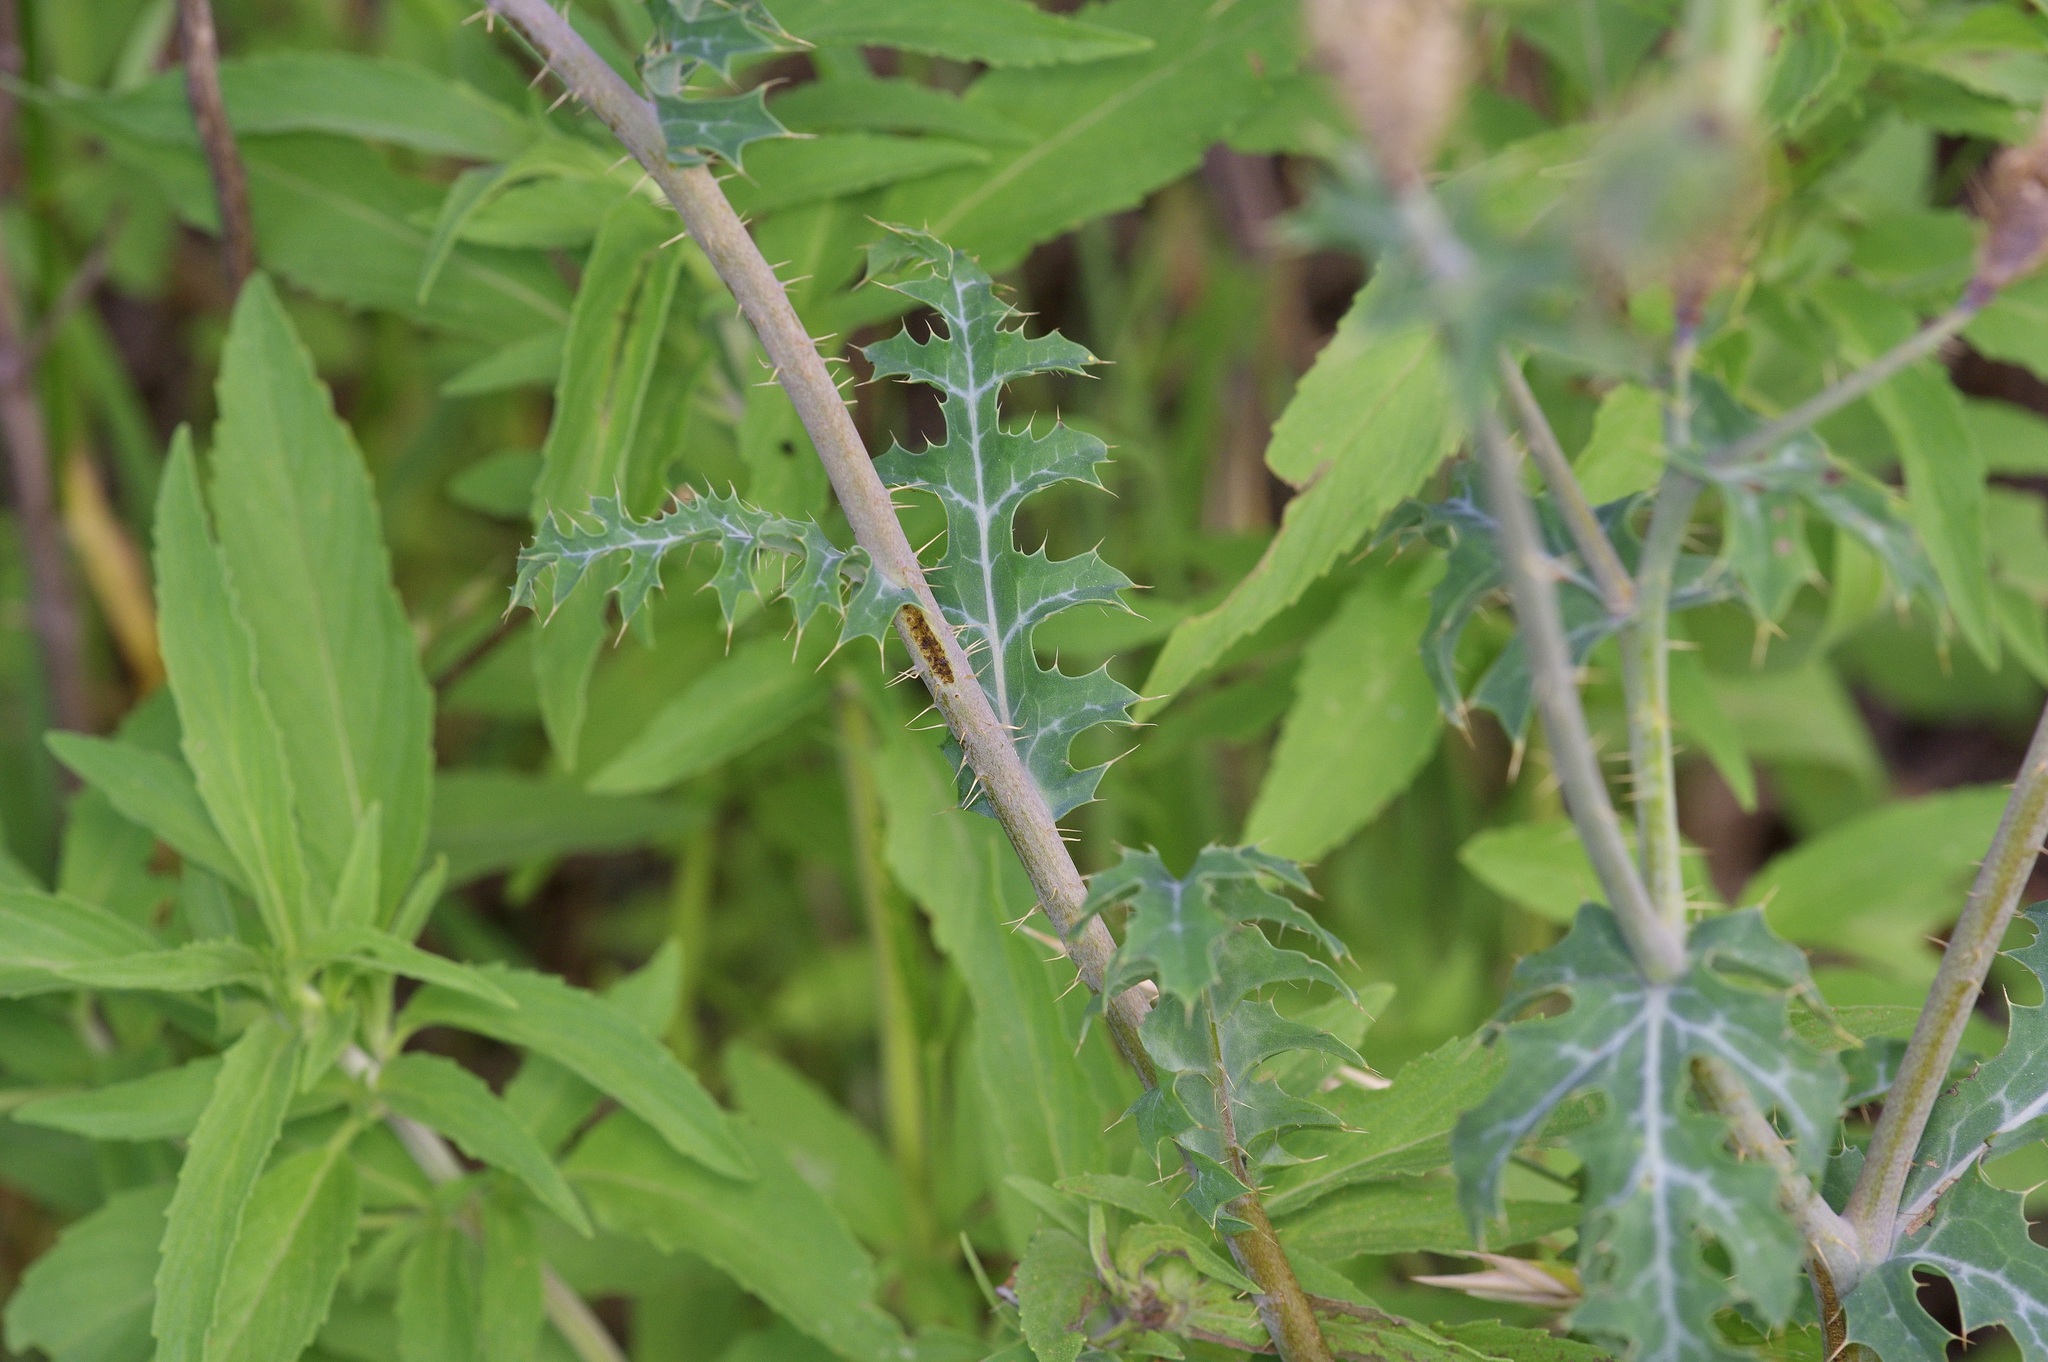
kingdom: Plantae
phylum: Tracheophyta
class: Magnoliopsida
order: Ranunculales
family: Papaveraceae
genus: Argemone
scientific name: Argemone sanguinea
